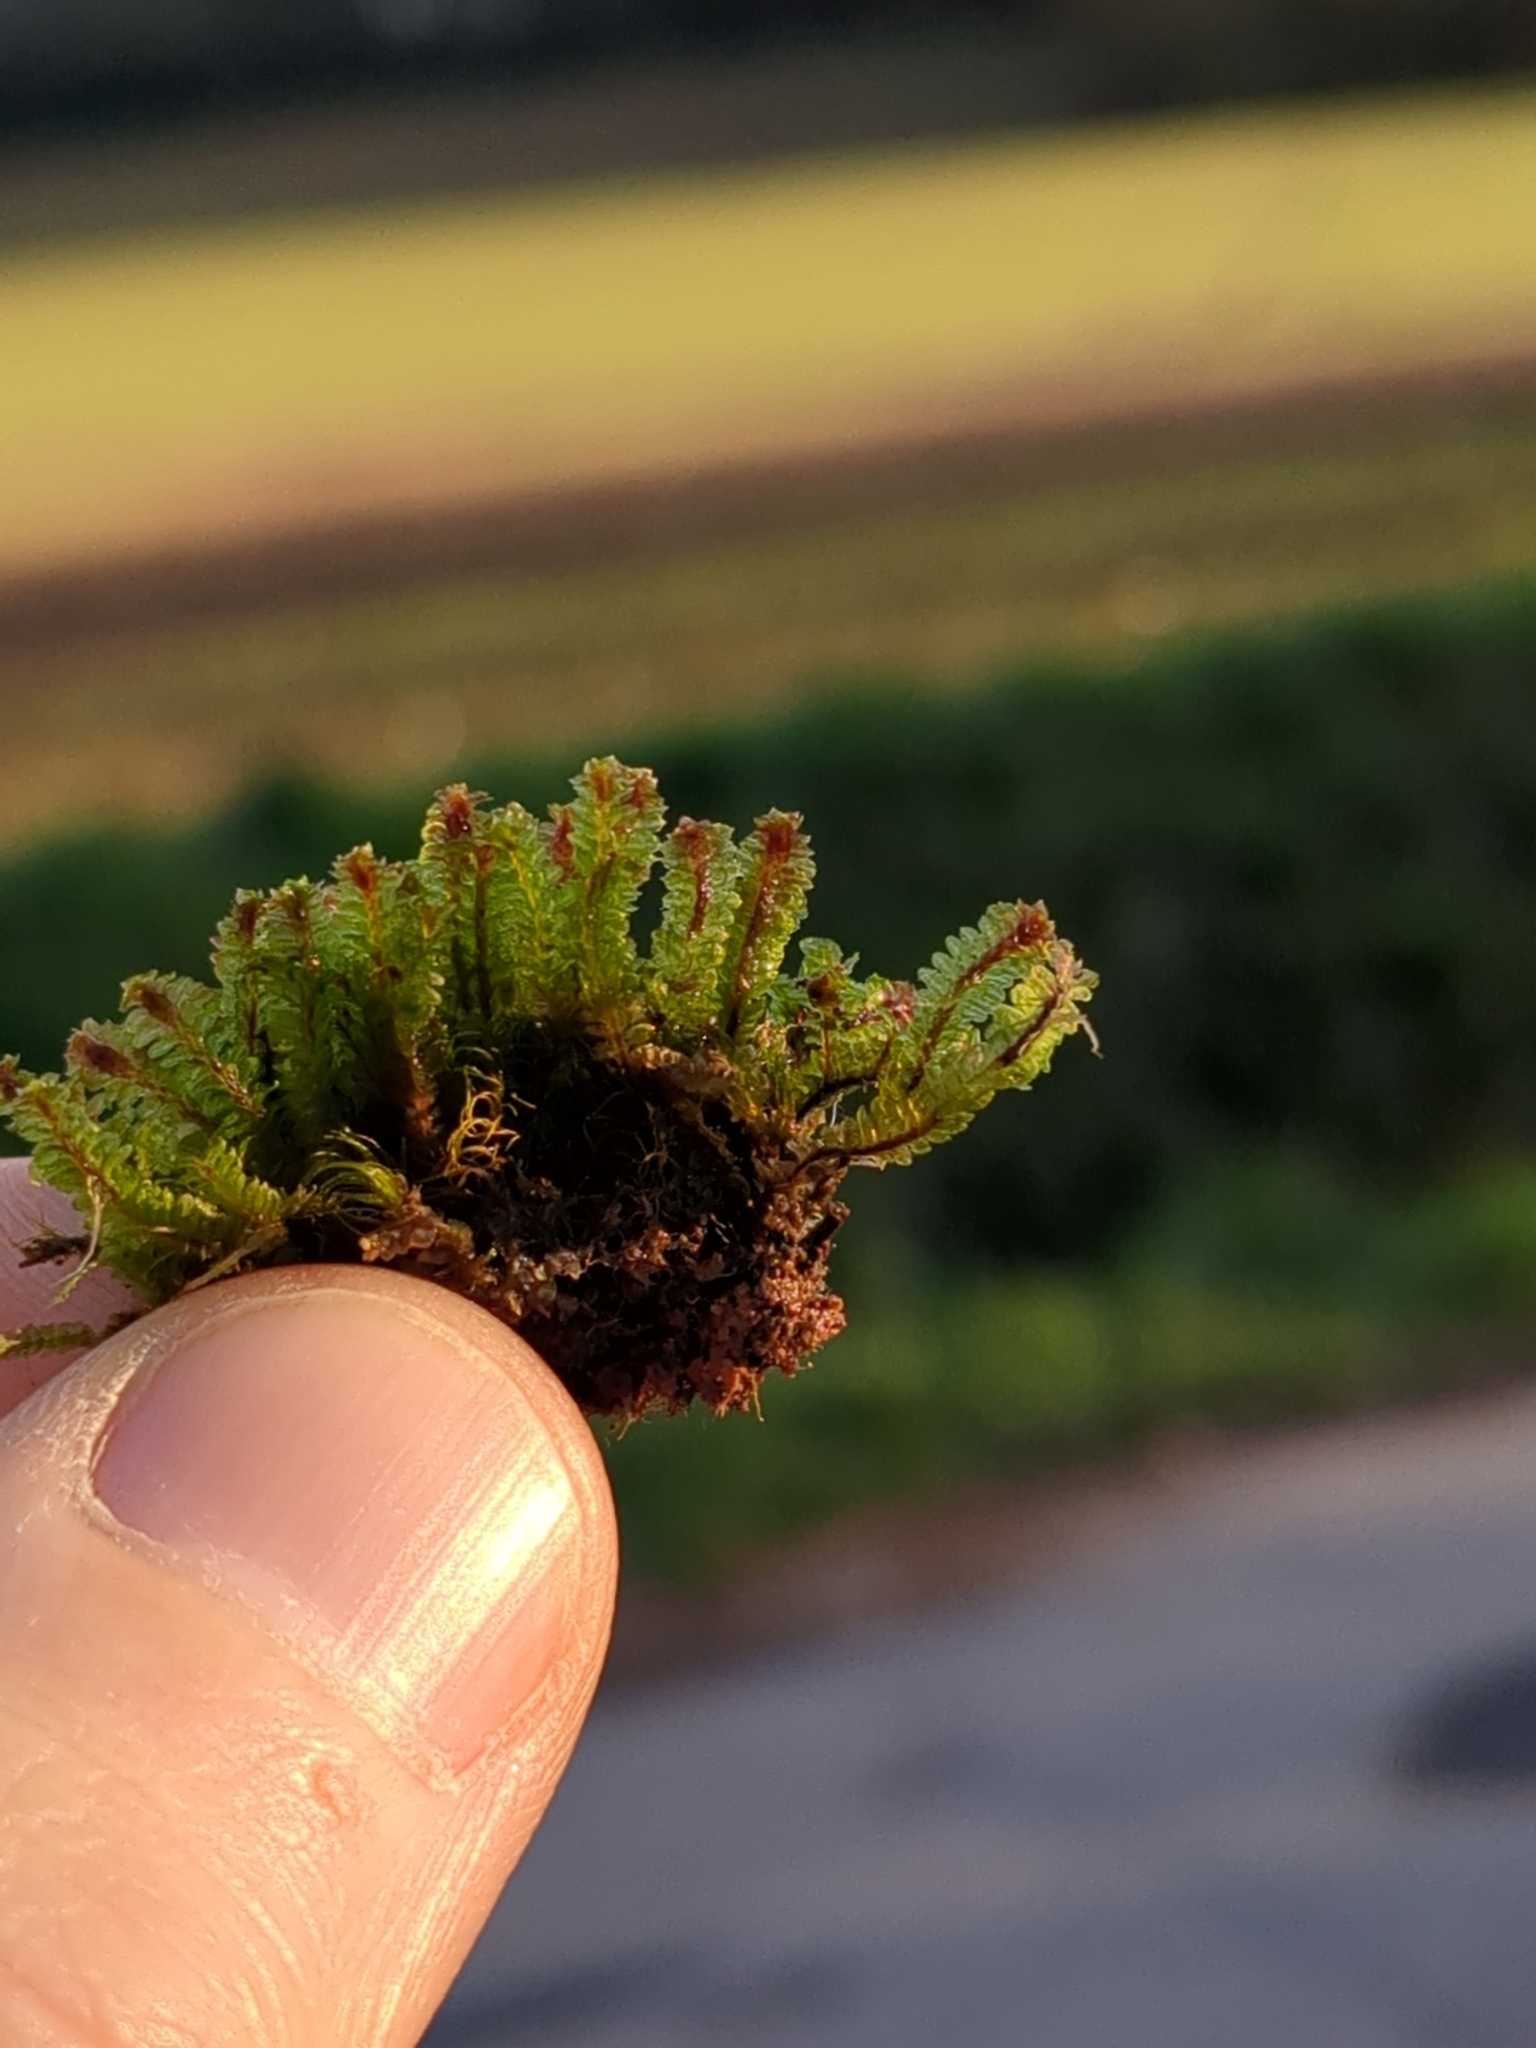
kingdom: Plantae
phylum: Marchantiophyta
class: Jungermanniopsida
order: Jungermanniales
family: Scapaniaceae
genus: Diplophyllum
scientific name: Diplophyllum albicans
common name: White earwort
